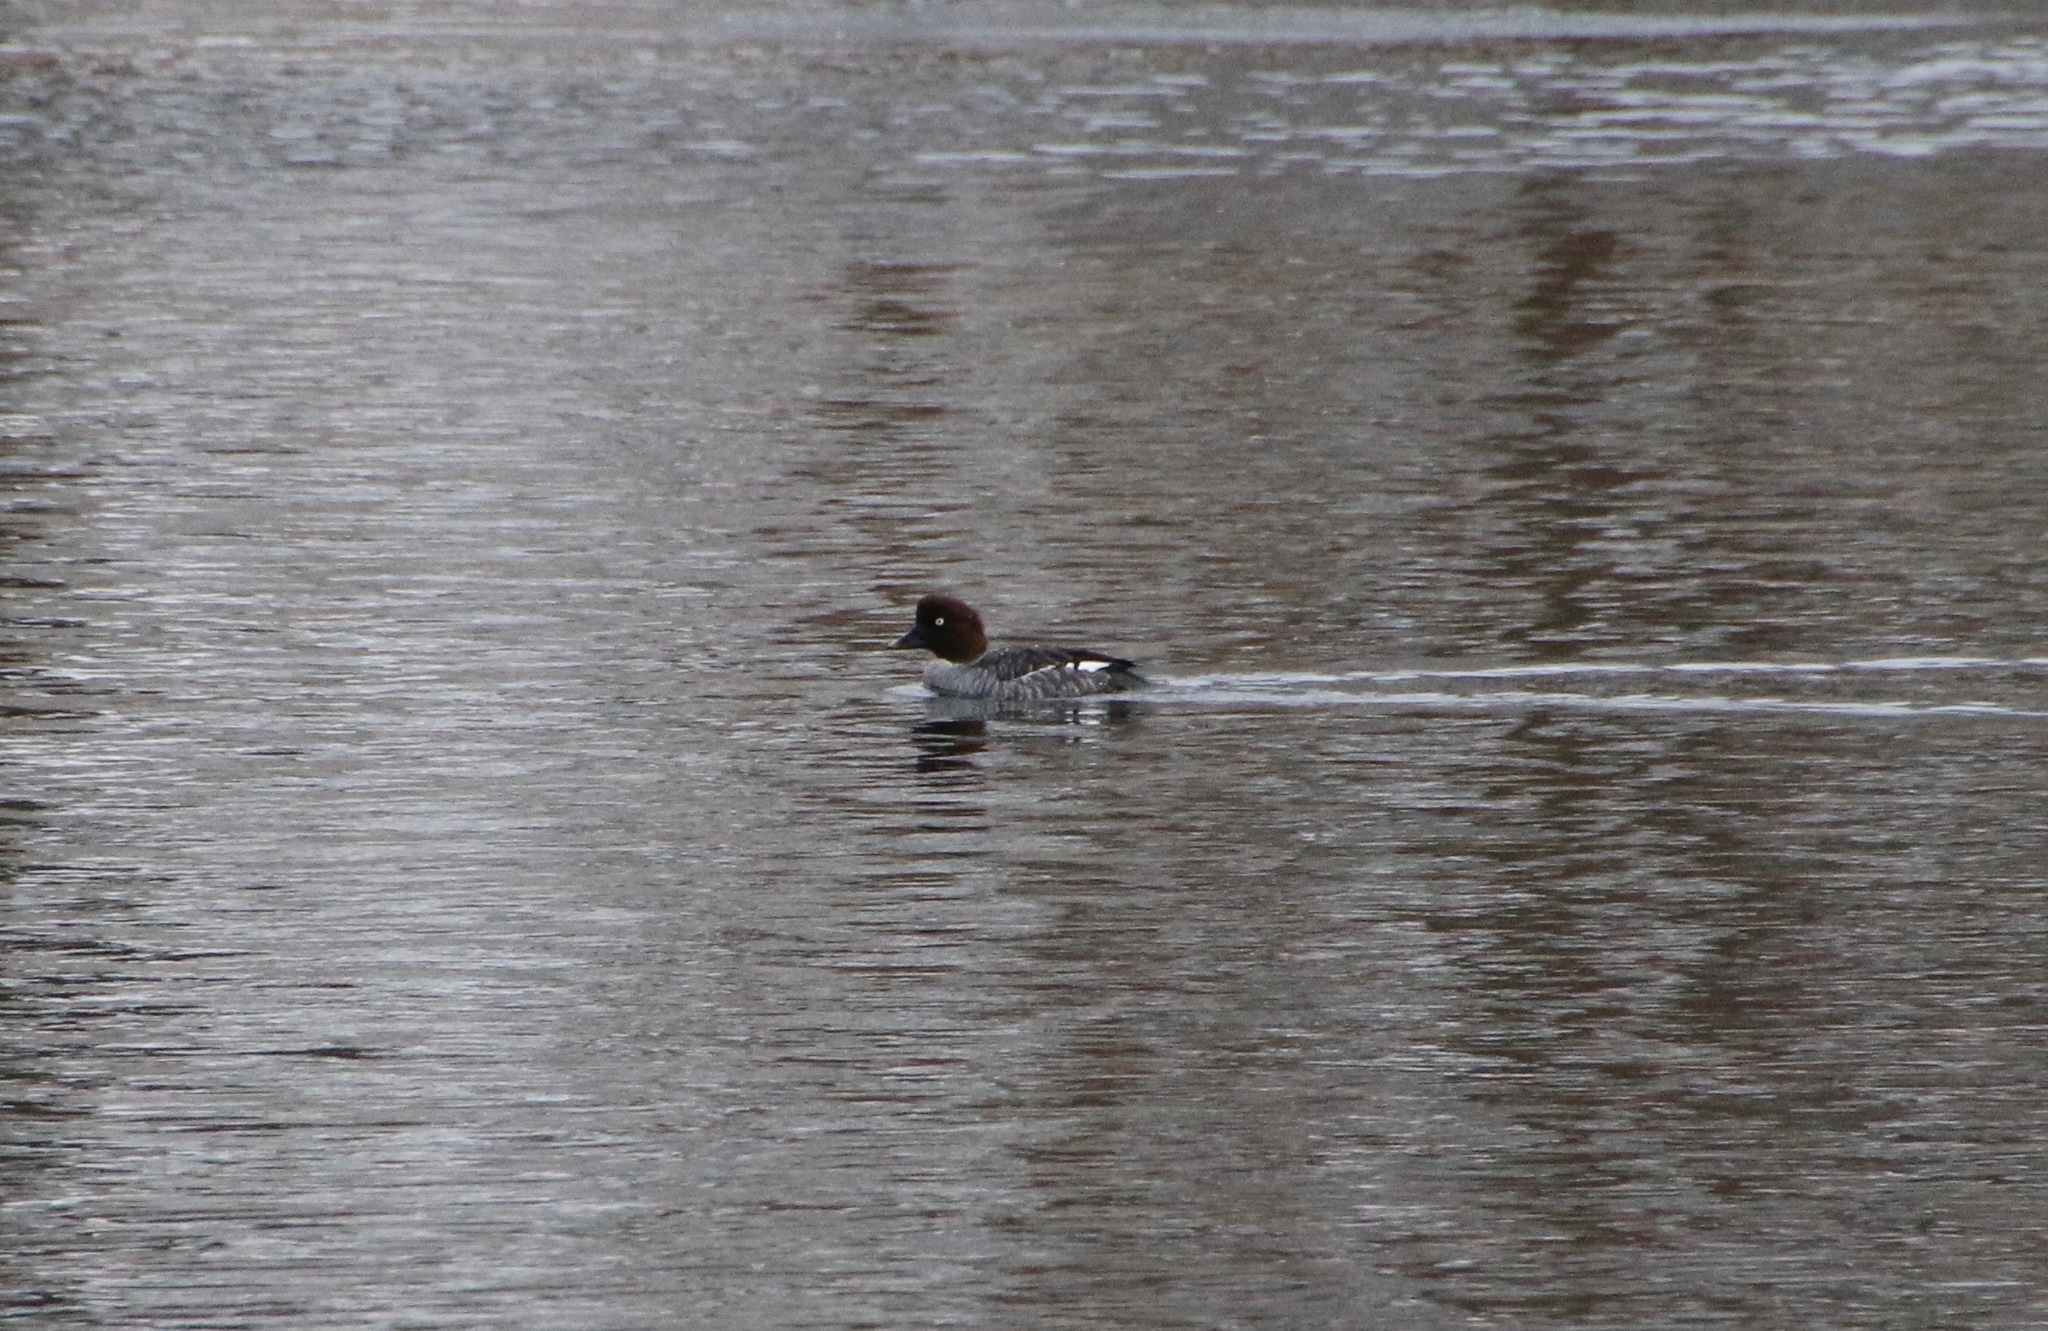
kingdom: Animalia
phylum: Chordata
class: Aves
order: Anseriformes
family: Anatidae
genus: Bucephala
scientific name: Bucephala clangula
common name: Common goldeneye
